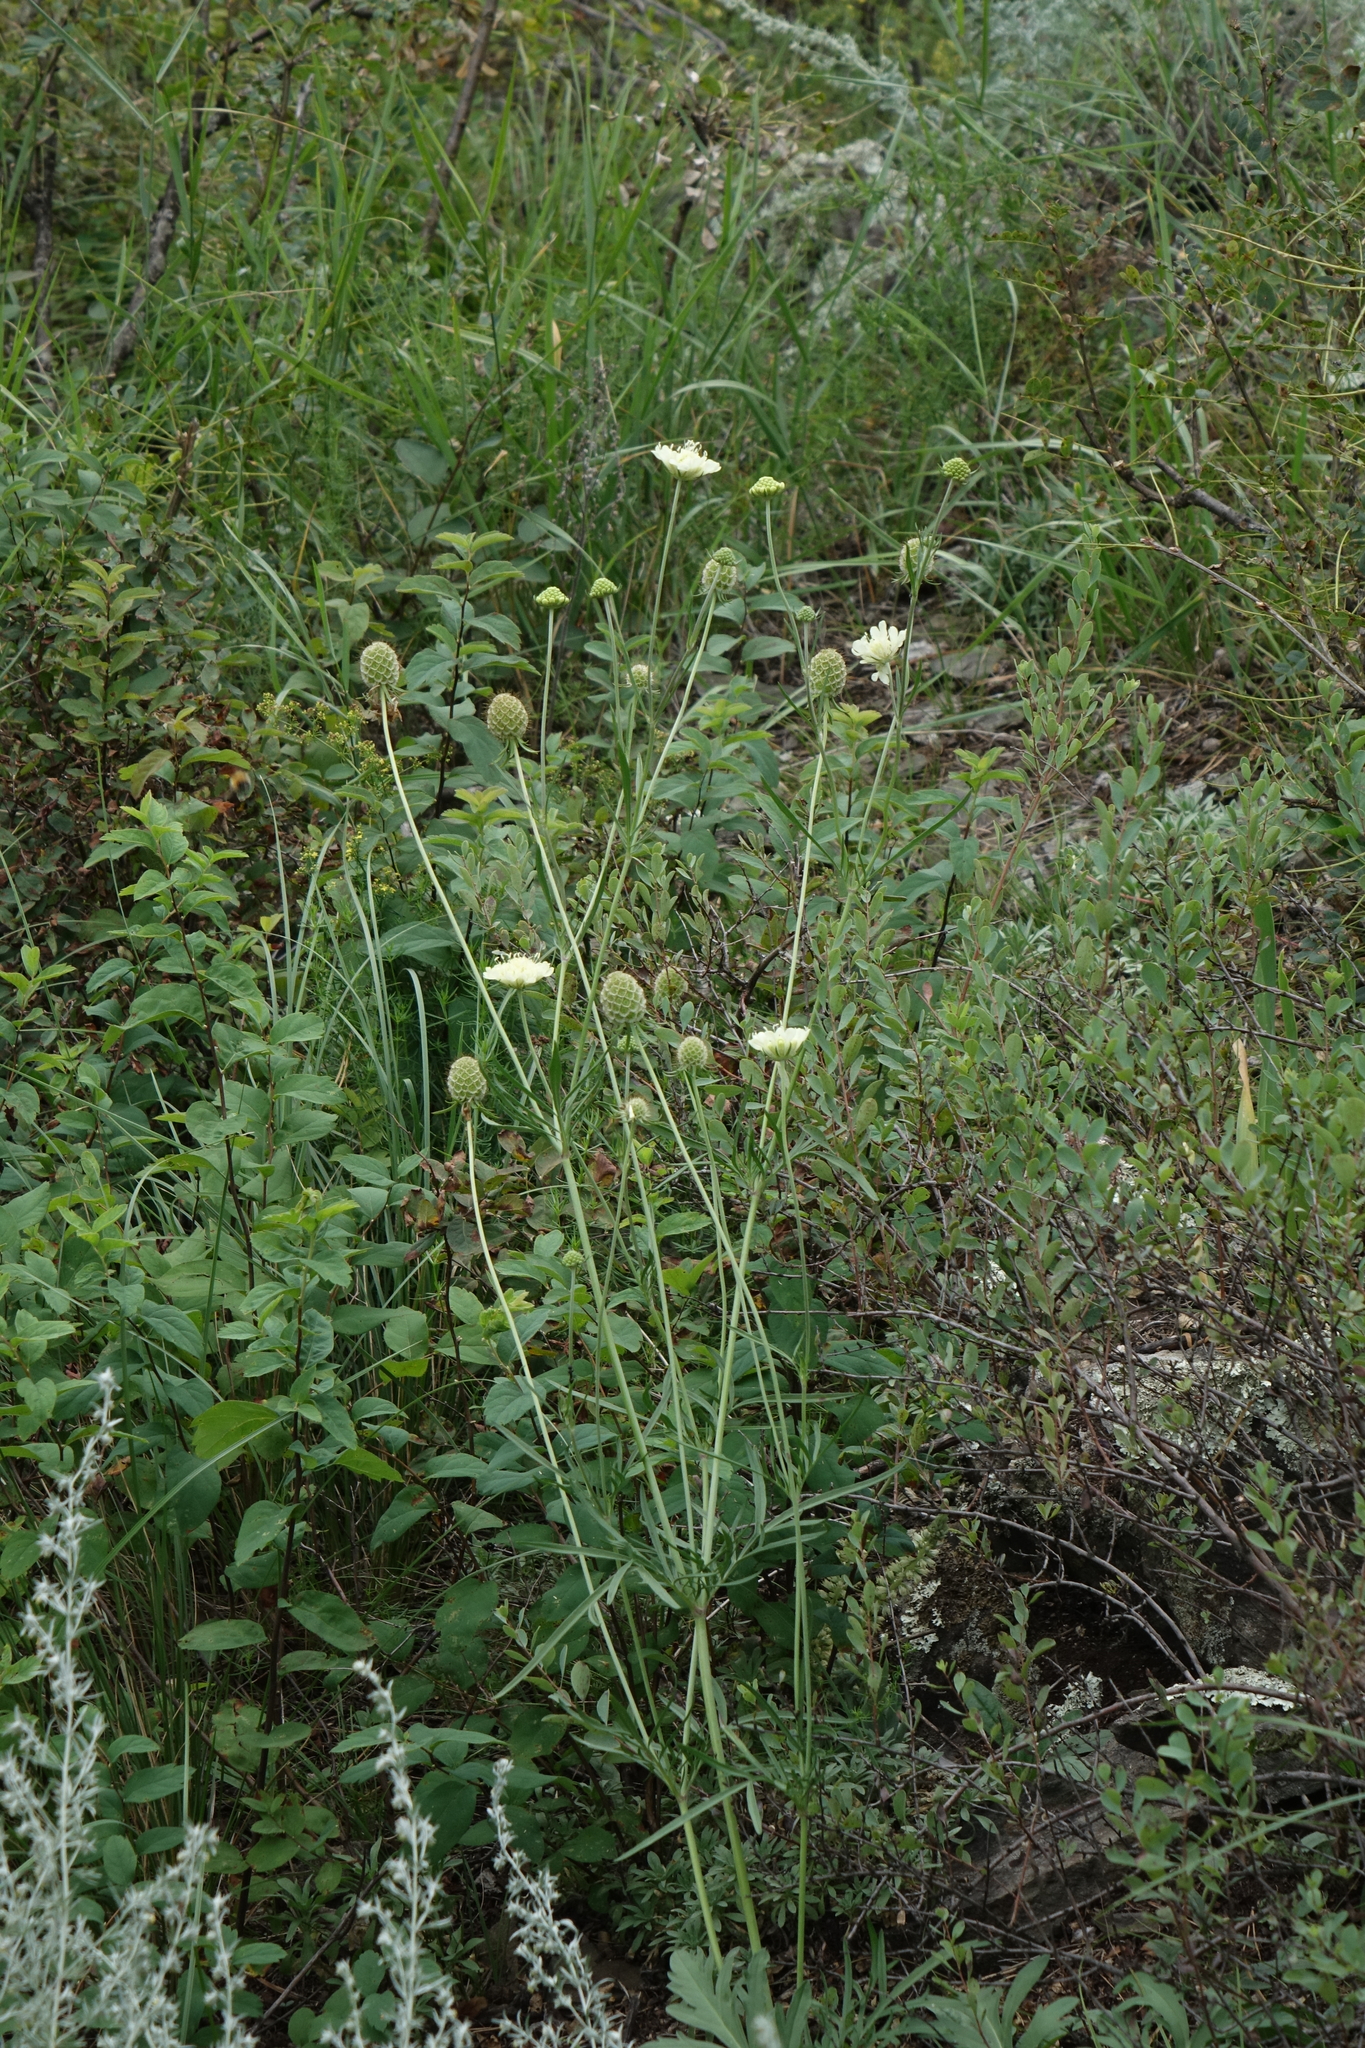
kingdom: Plantae
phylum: Tracheophyta
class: Magnoliopsida
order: Dipsacales
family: Caprifoliaceae
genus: Scabiosa
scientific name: Scabiosa ochroleuca
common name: Cream pincushions
